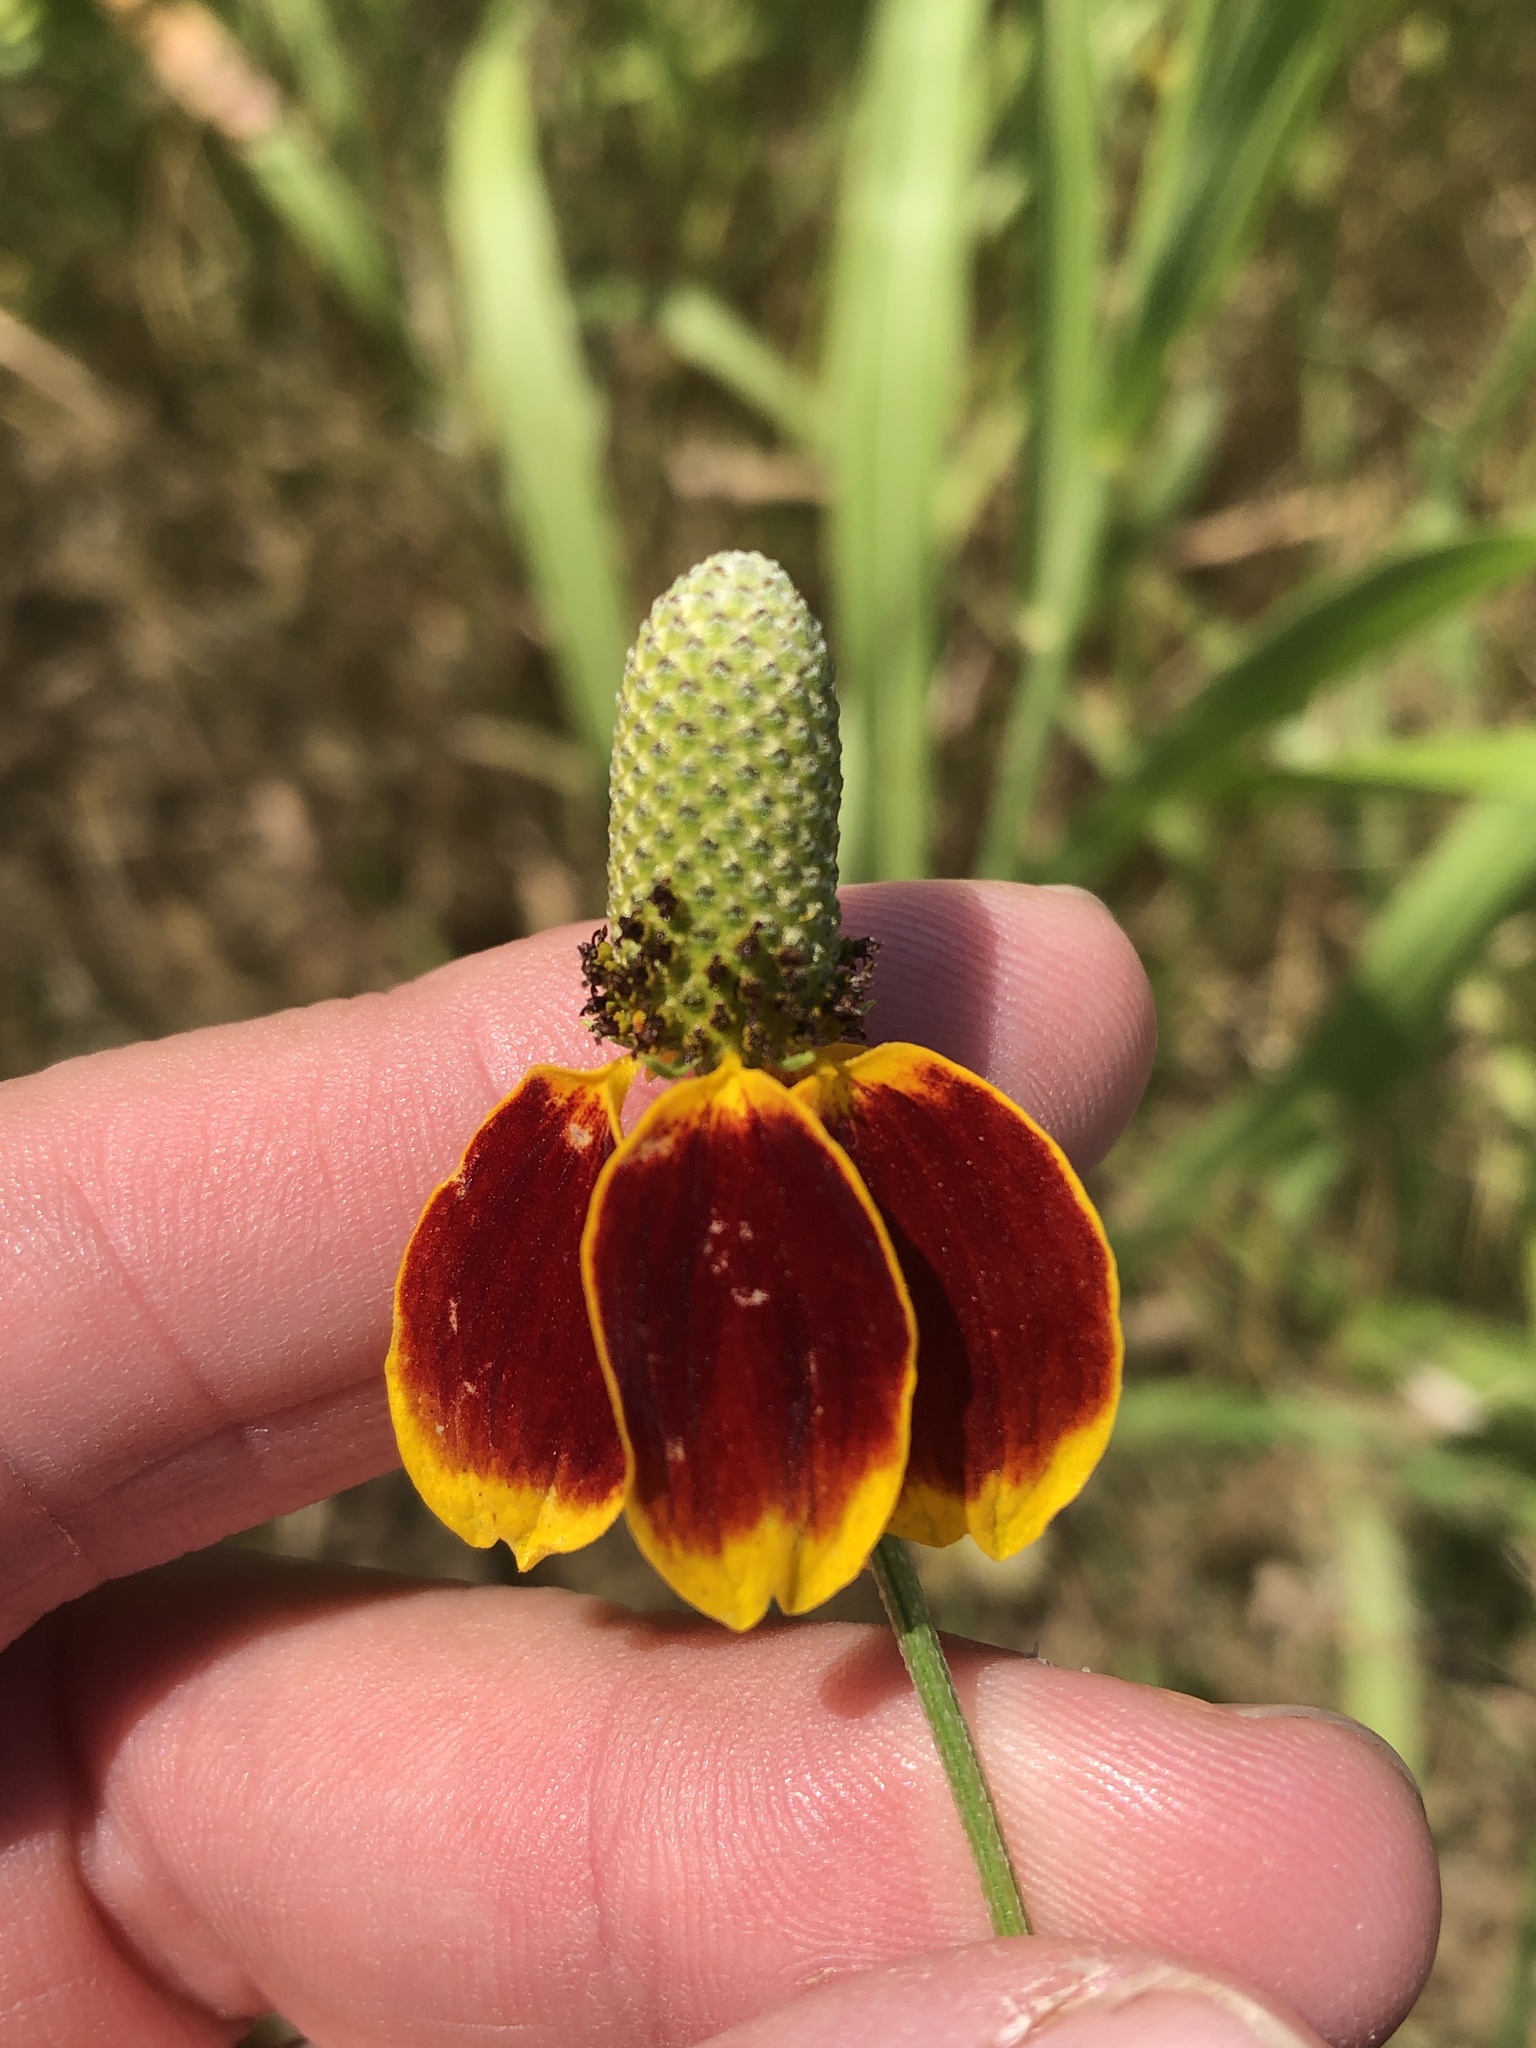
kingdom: Plantae
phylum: Tracheophyta
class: Magnoliopsida
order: Asterales
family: Asteraceae
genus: Ratibida
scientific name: Ratibida columnifera
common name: Prairie coneflower
